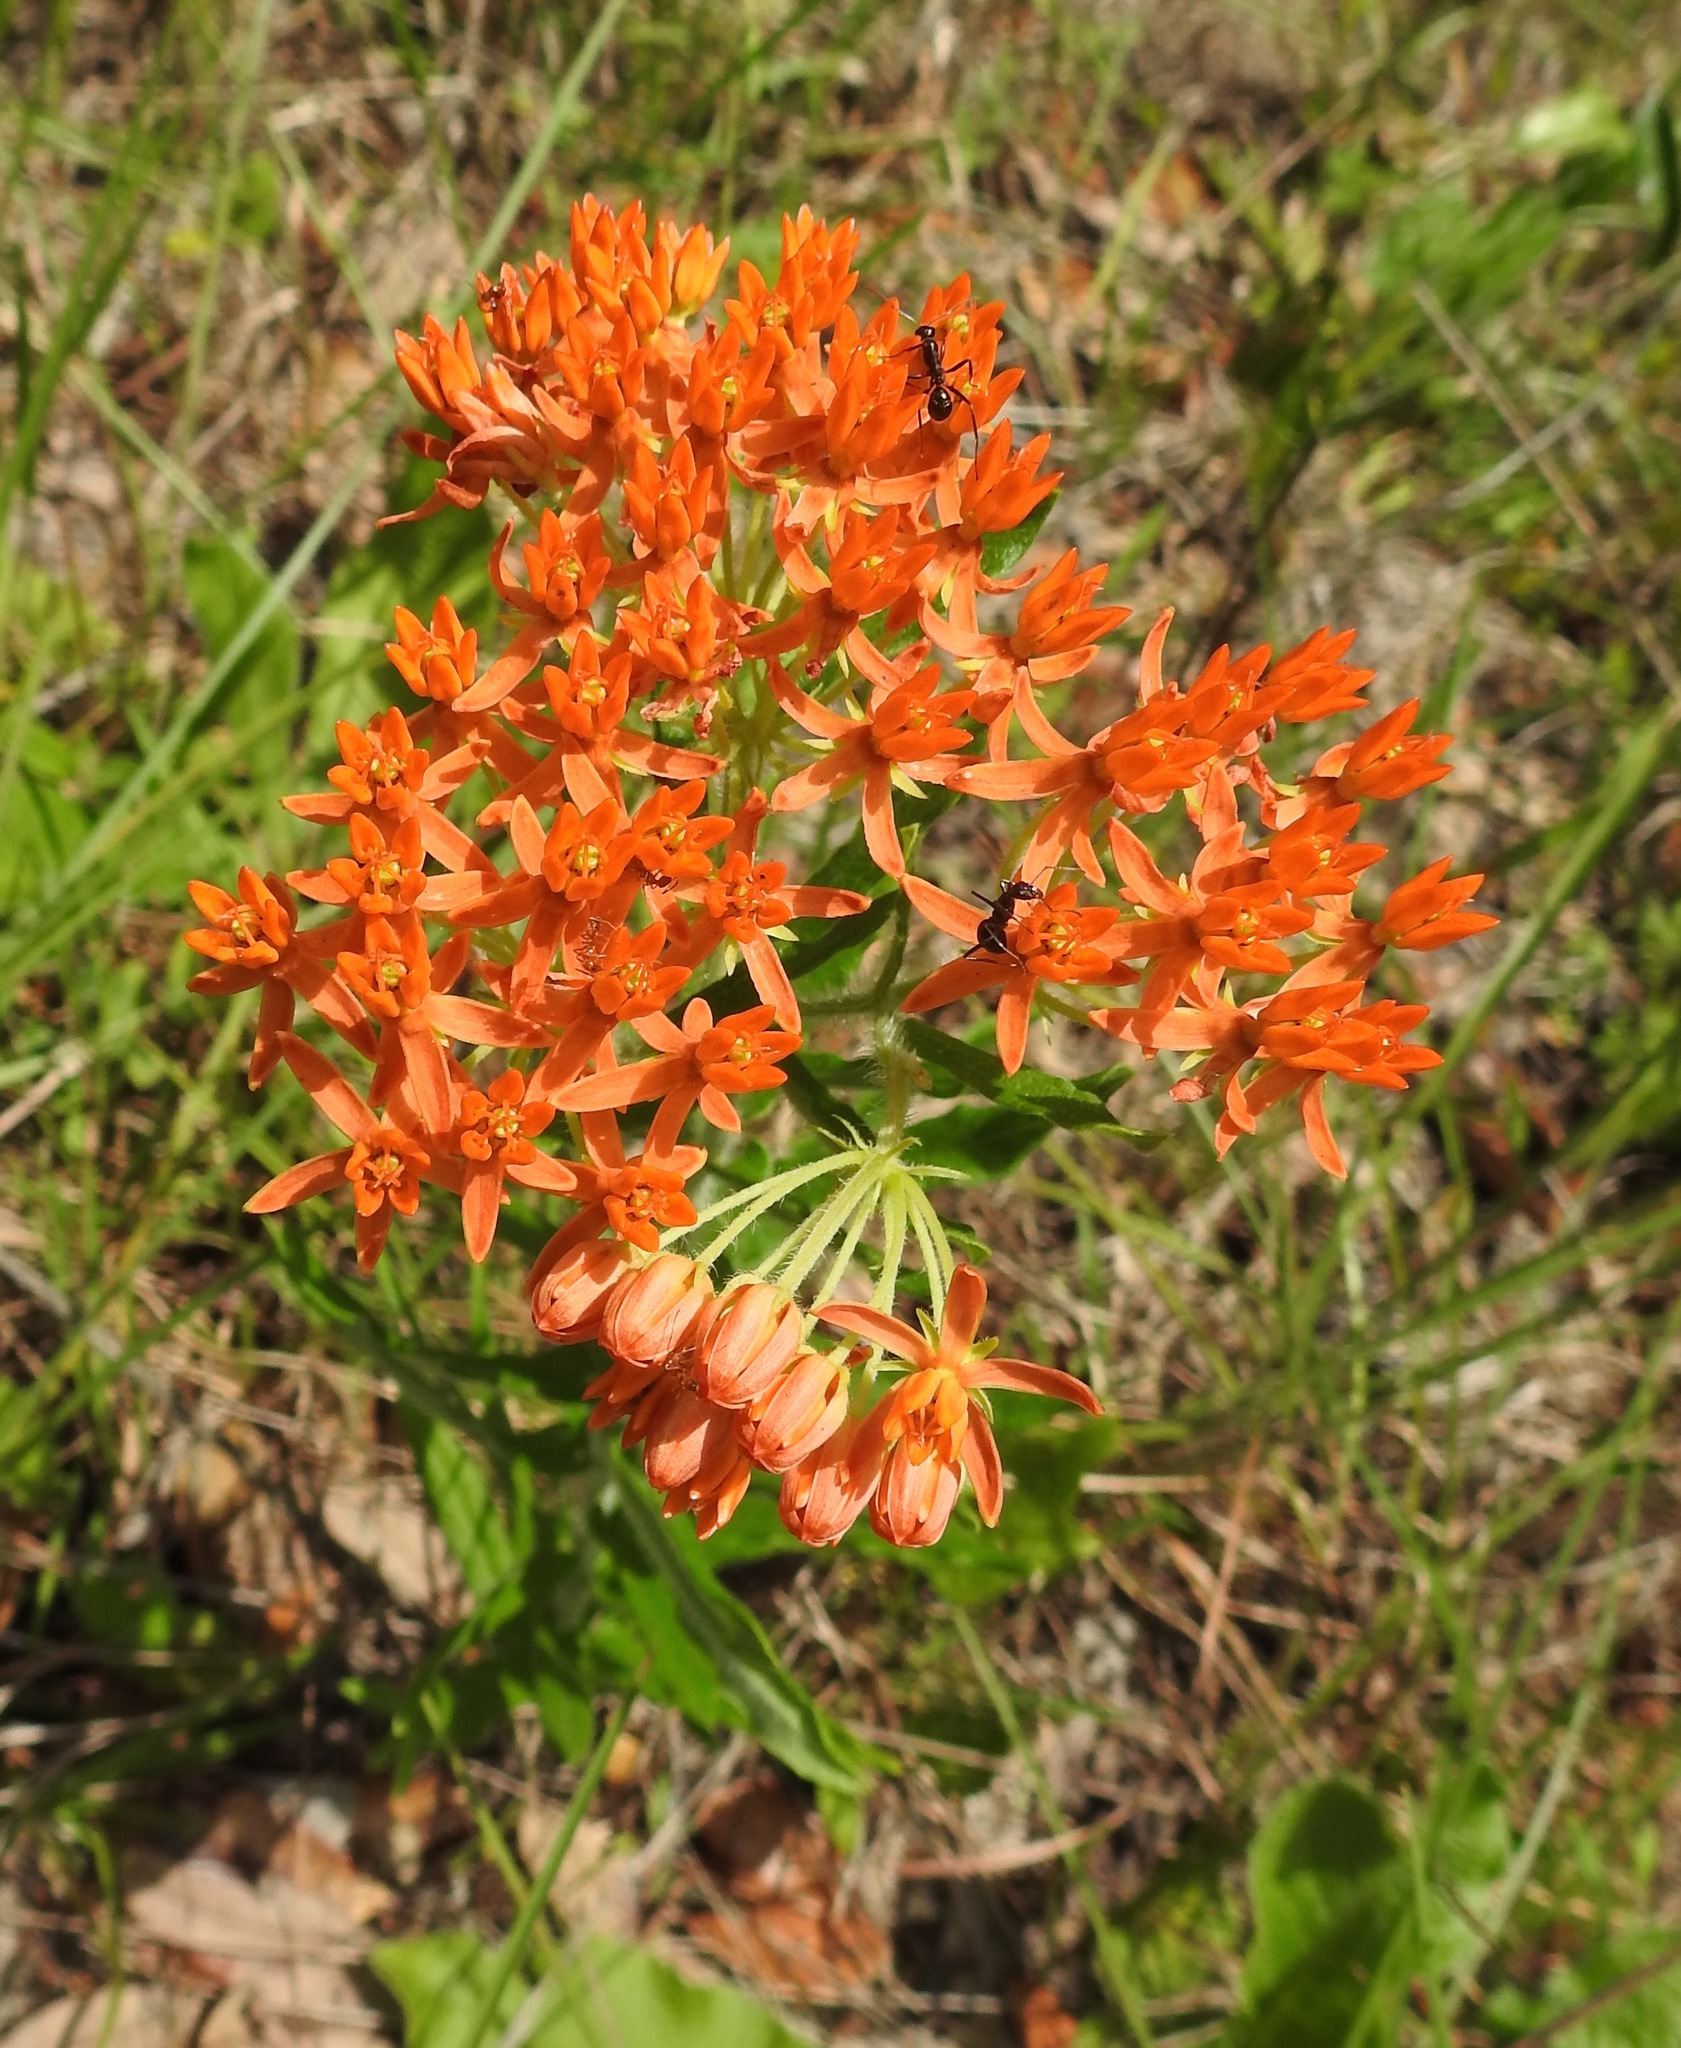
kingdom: Plantae
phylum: Tracheophyta
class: Magnoliopsida
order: Gentianales
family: Apocynaceae
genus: Asclepias
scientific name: Asclepias tuberosa
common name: Butterfly milkweed
